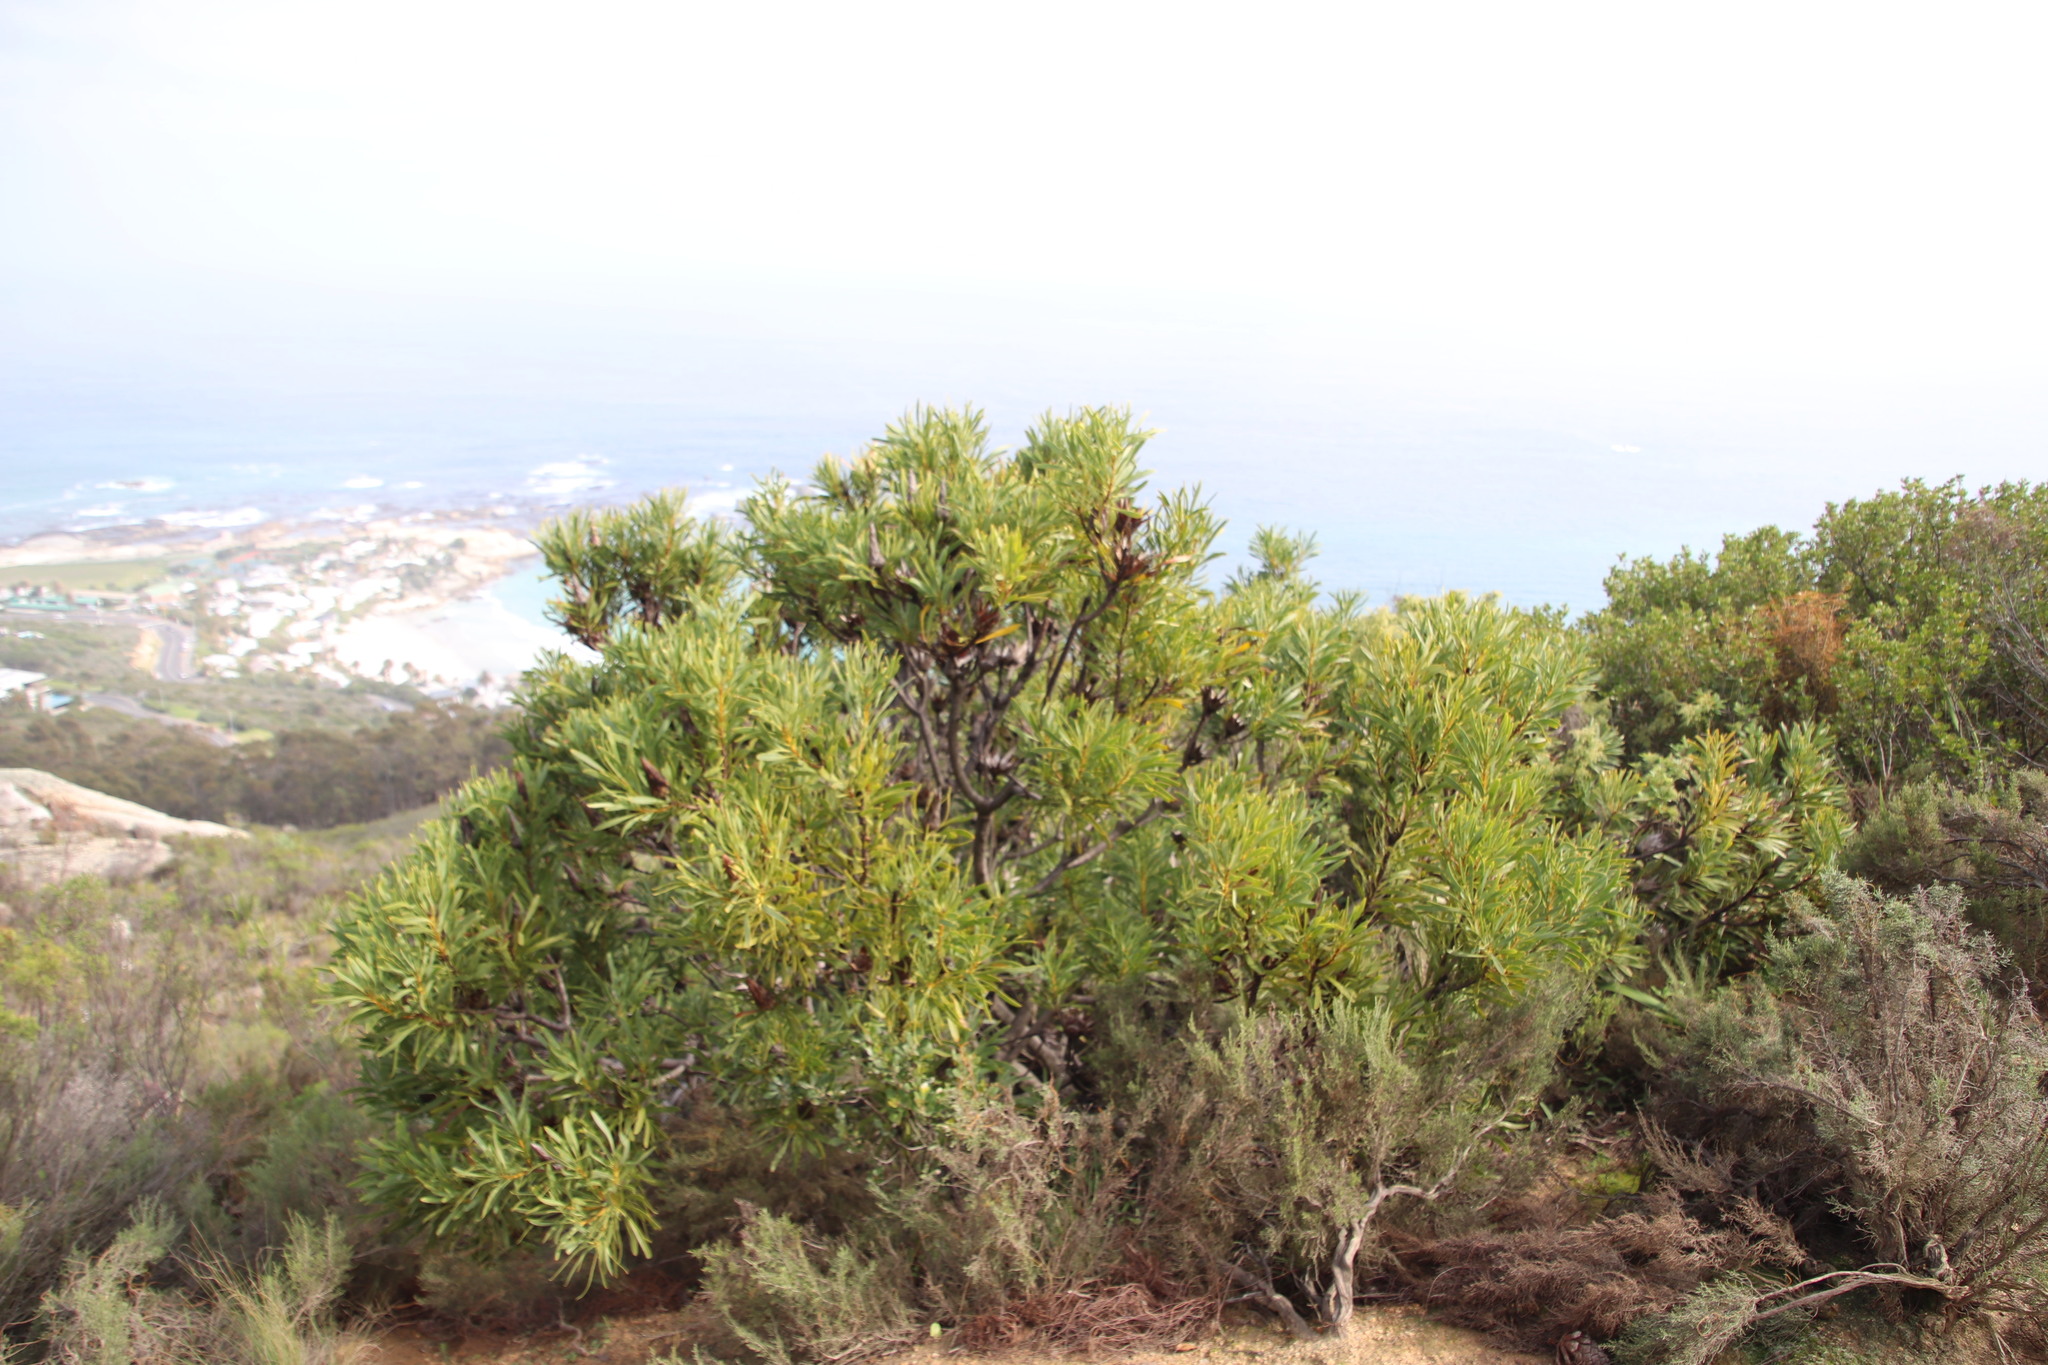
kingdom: Plantae
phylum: Tracheophyta
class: Magnoliopsida
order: Proteales
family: Proteaceae
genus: Protea
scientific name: Protea repens
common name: Sugarbush
